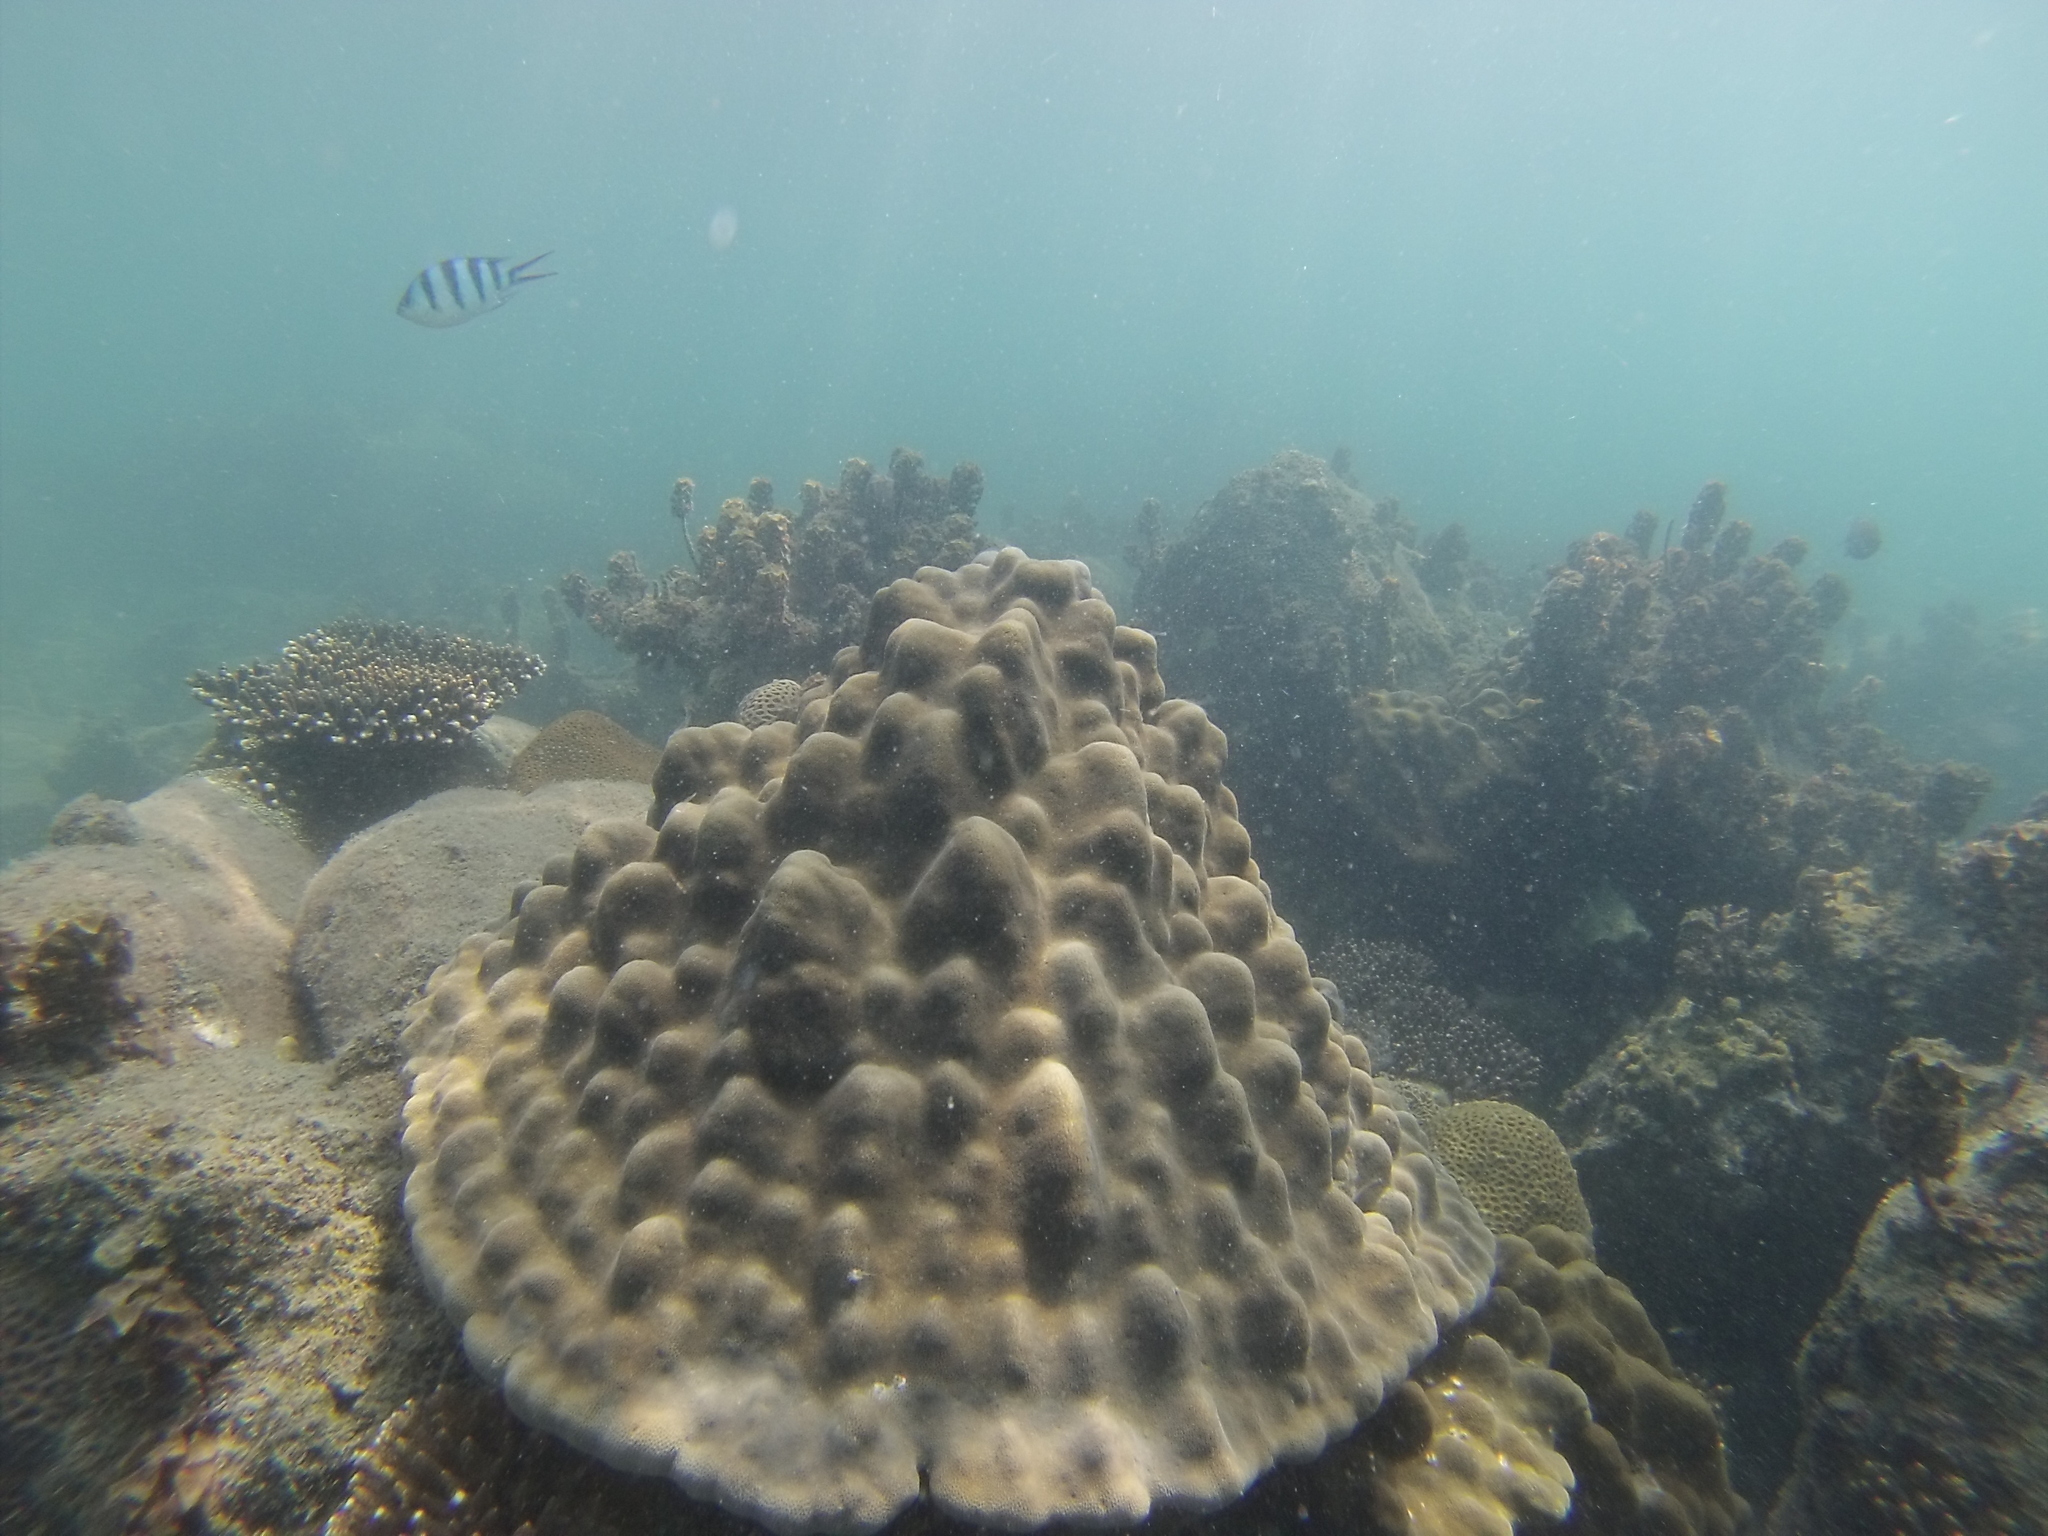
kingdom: Animalia
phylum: Chordata
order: Perciformes
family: Pomacentridae
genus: Abudefduf
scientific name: Abudefduf sexfasciatus
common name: Scissortail sergeant
